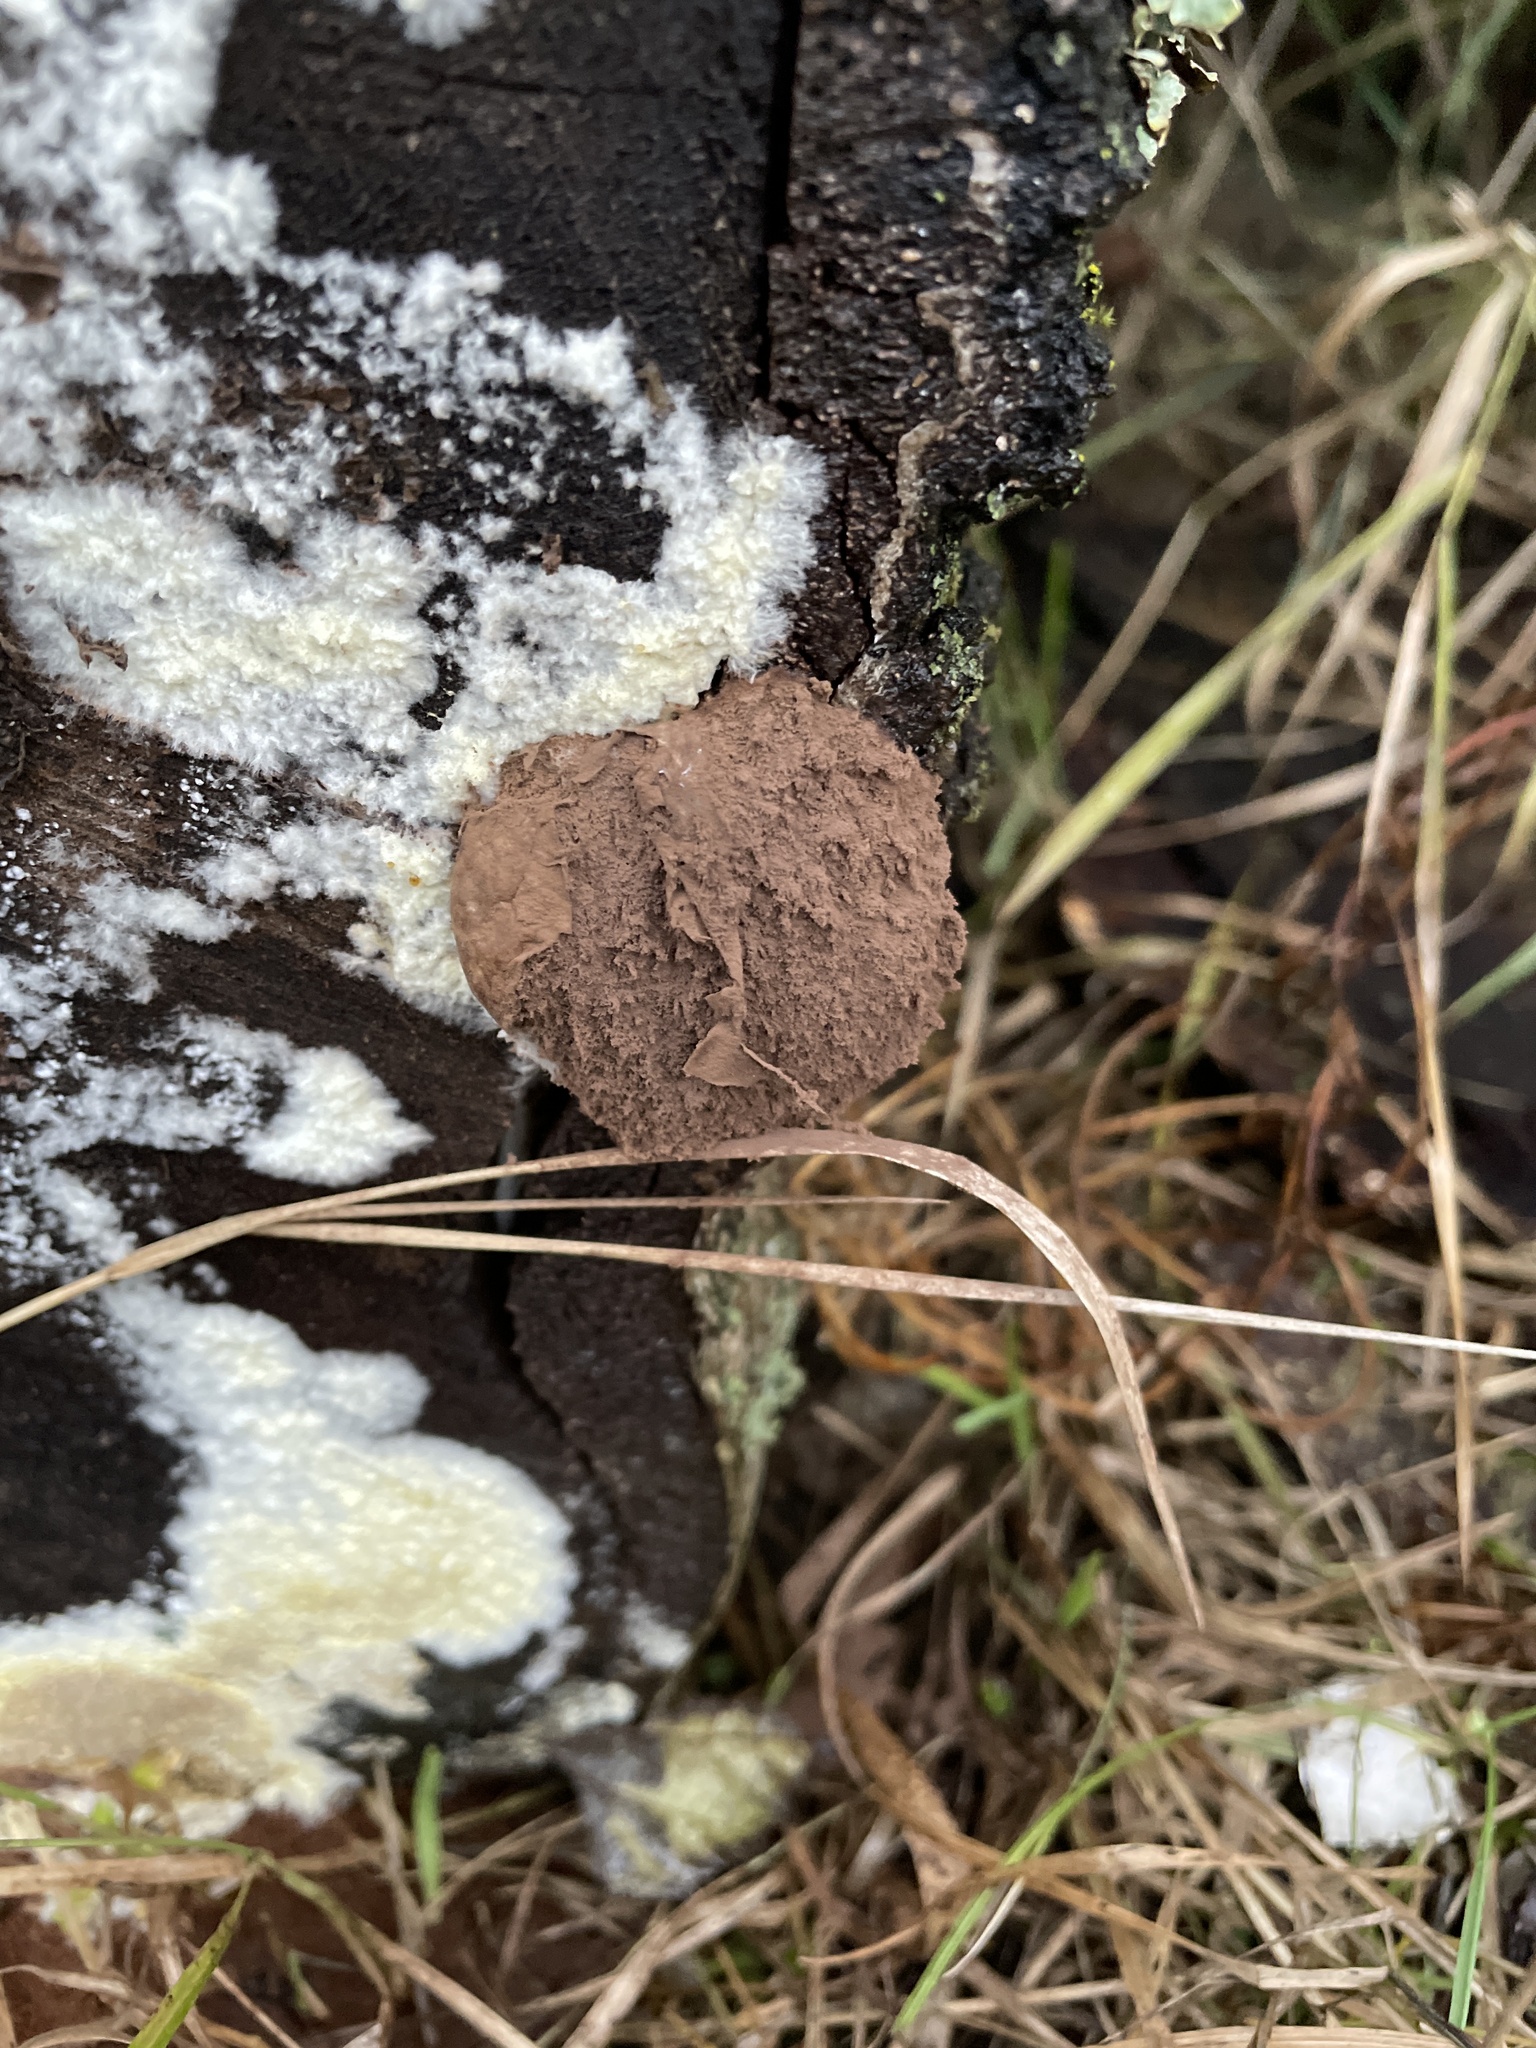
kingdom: Protozoa
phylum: Mycetozoa
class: Myxomycetes
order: Cribrariales
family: Tubiferaceae
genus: Reticularia
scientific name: Reticularia lycoperdon
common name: False puffball
